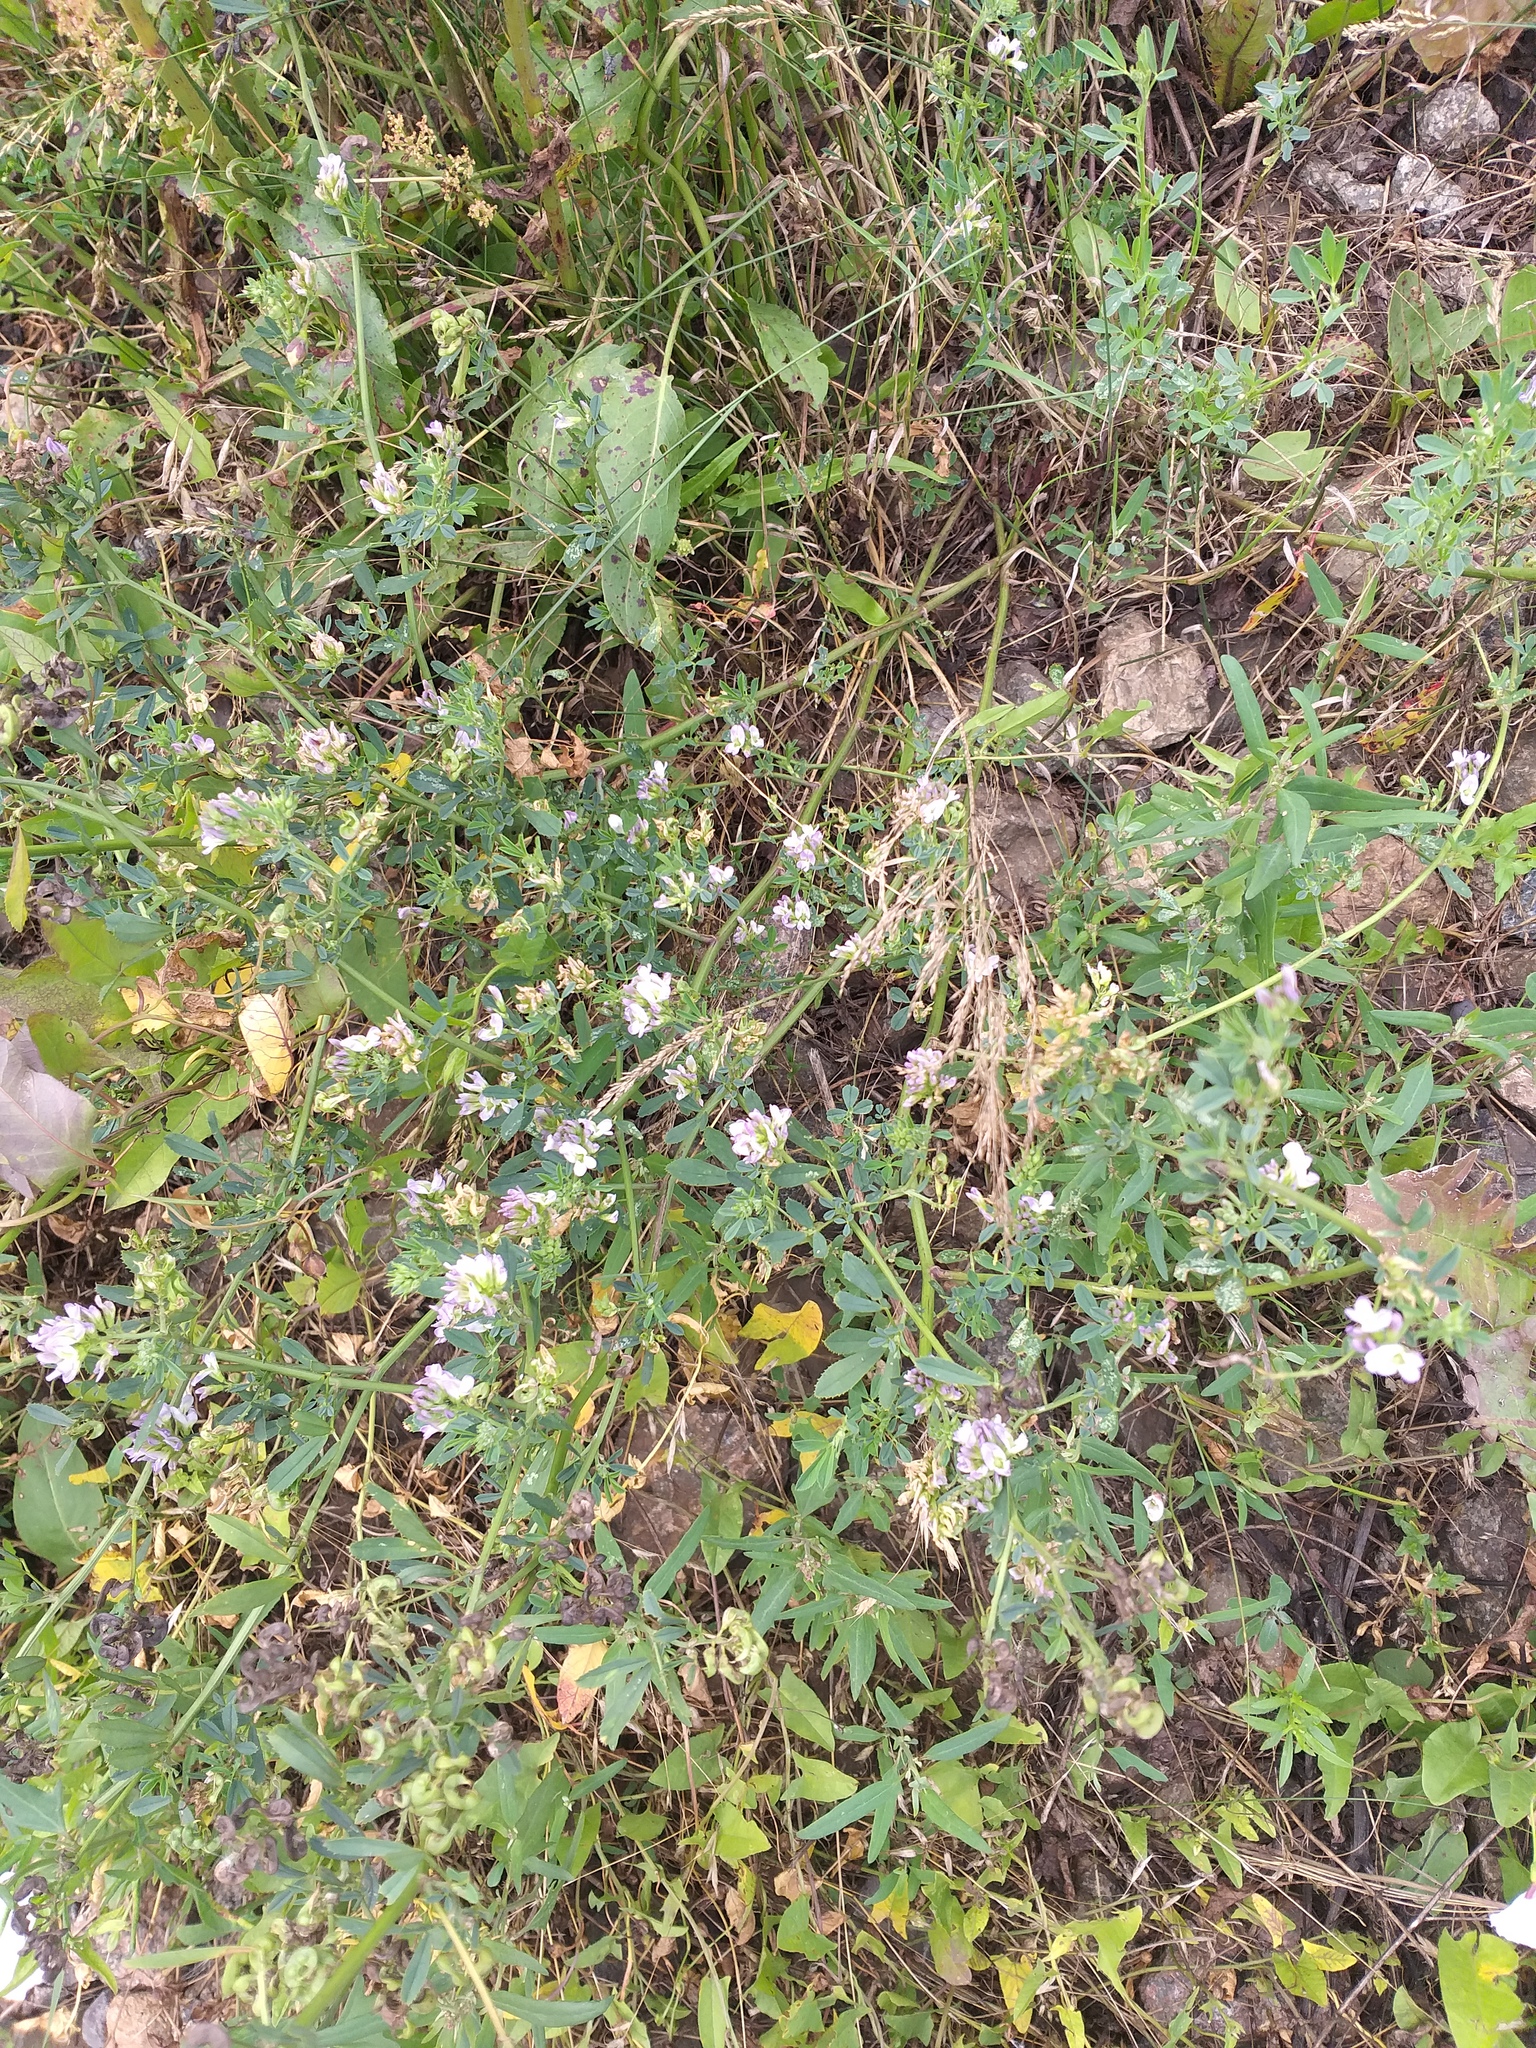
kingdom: Plantae
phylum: Tracheophyta
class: Magnoliopsida
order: Fabales
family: Fabaceae
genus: Medicago
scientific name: Medicago varia
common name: Sand lucerne
